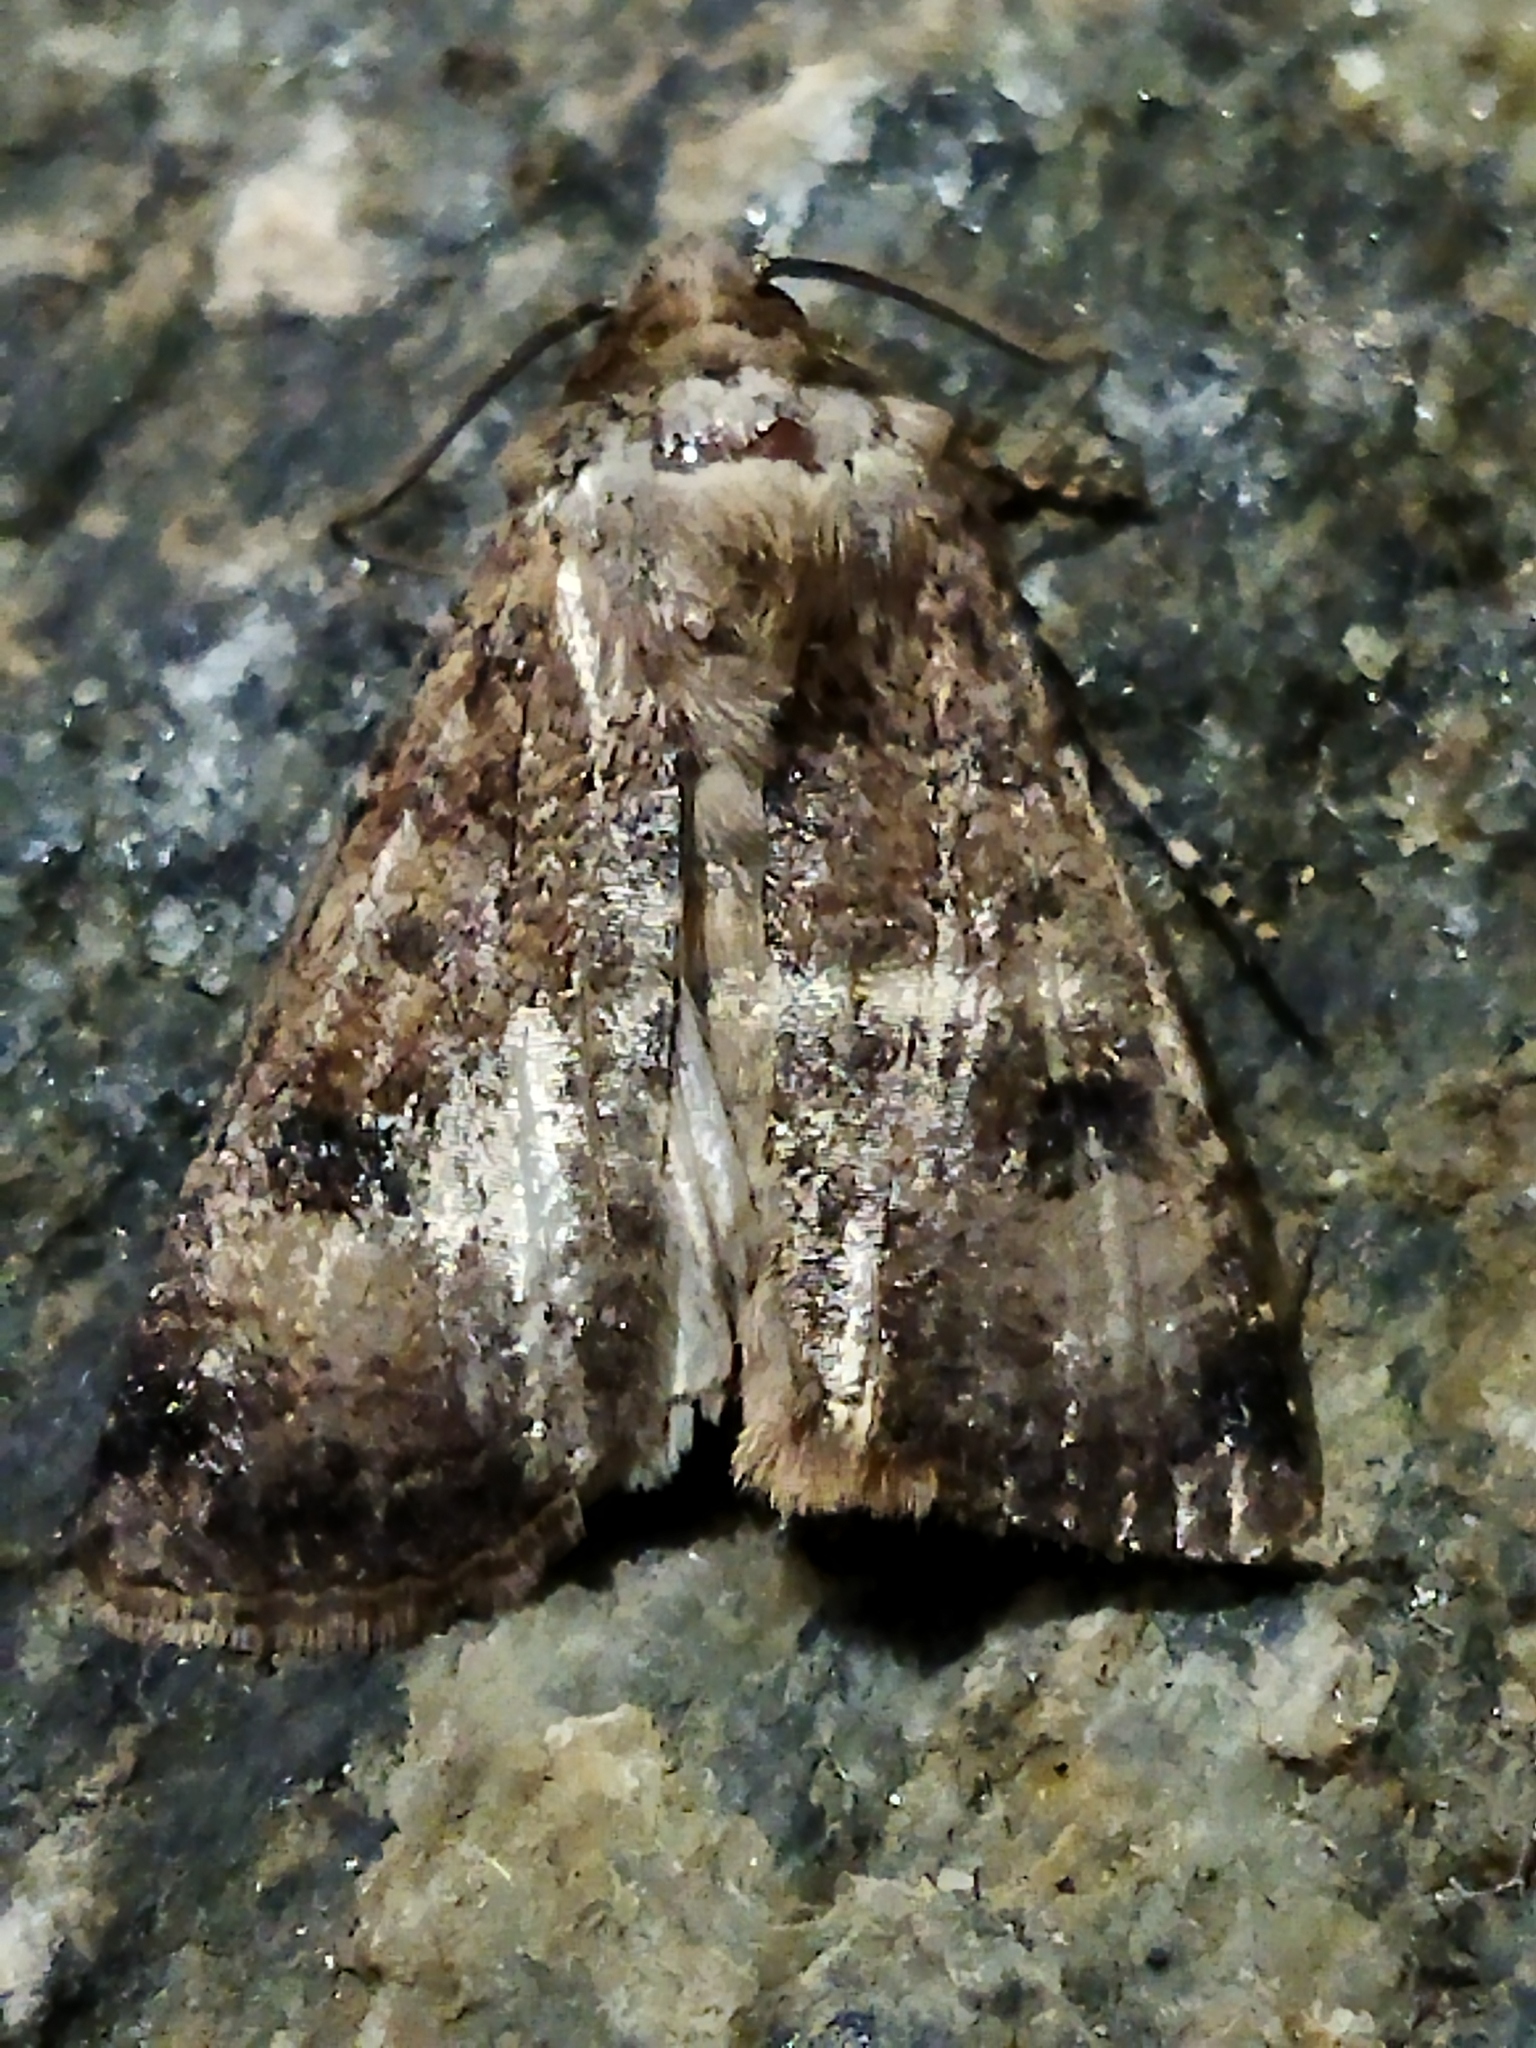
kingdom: Animalia
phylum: Arthropoda
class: Insecta
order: Lepidoptera
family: Noctuidae
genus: Agrotis
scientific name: Agrotis trux
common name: Crescent dart
